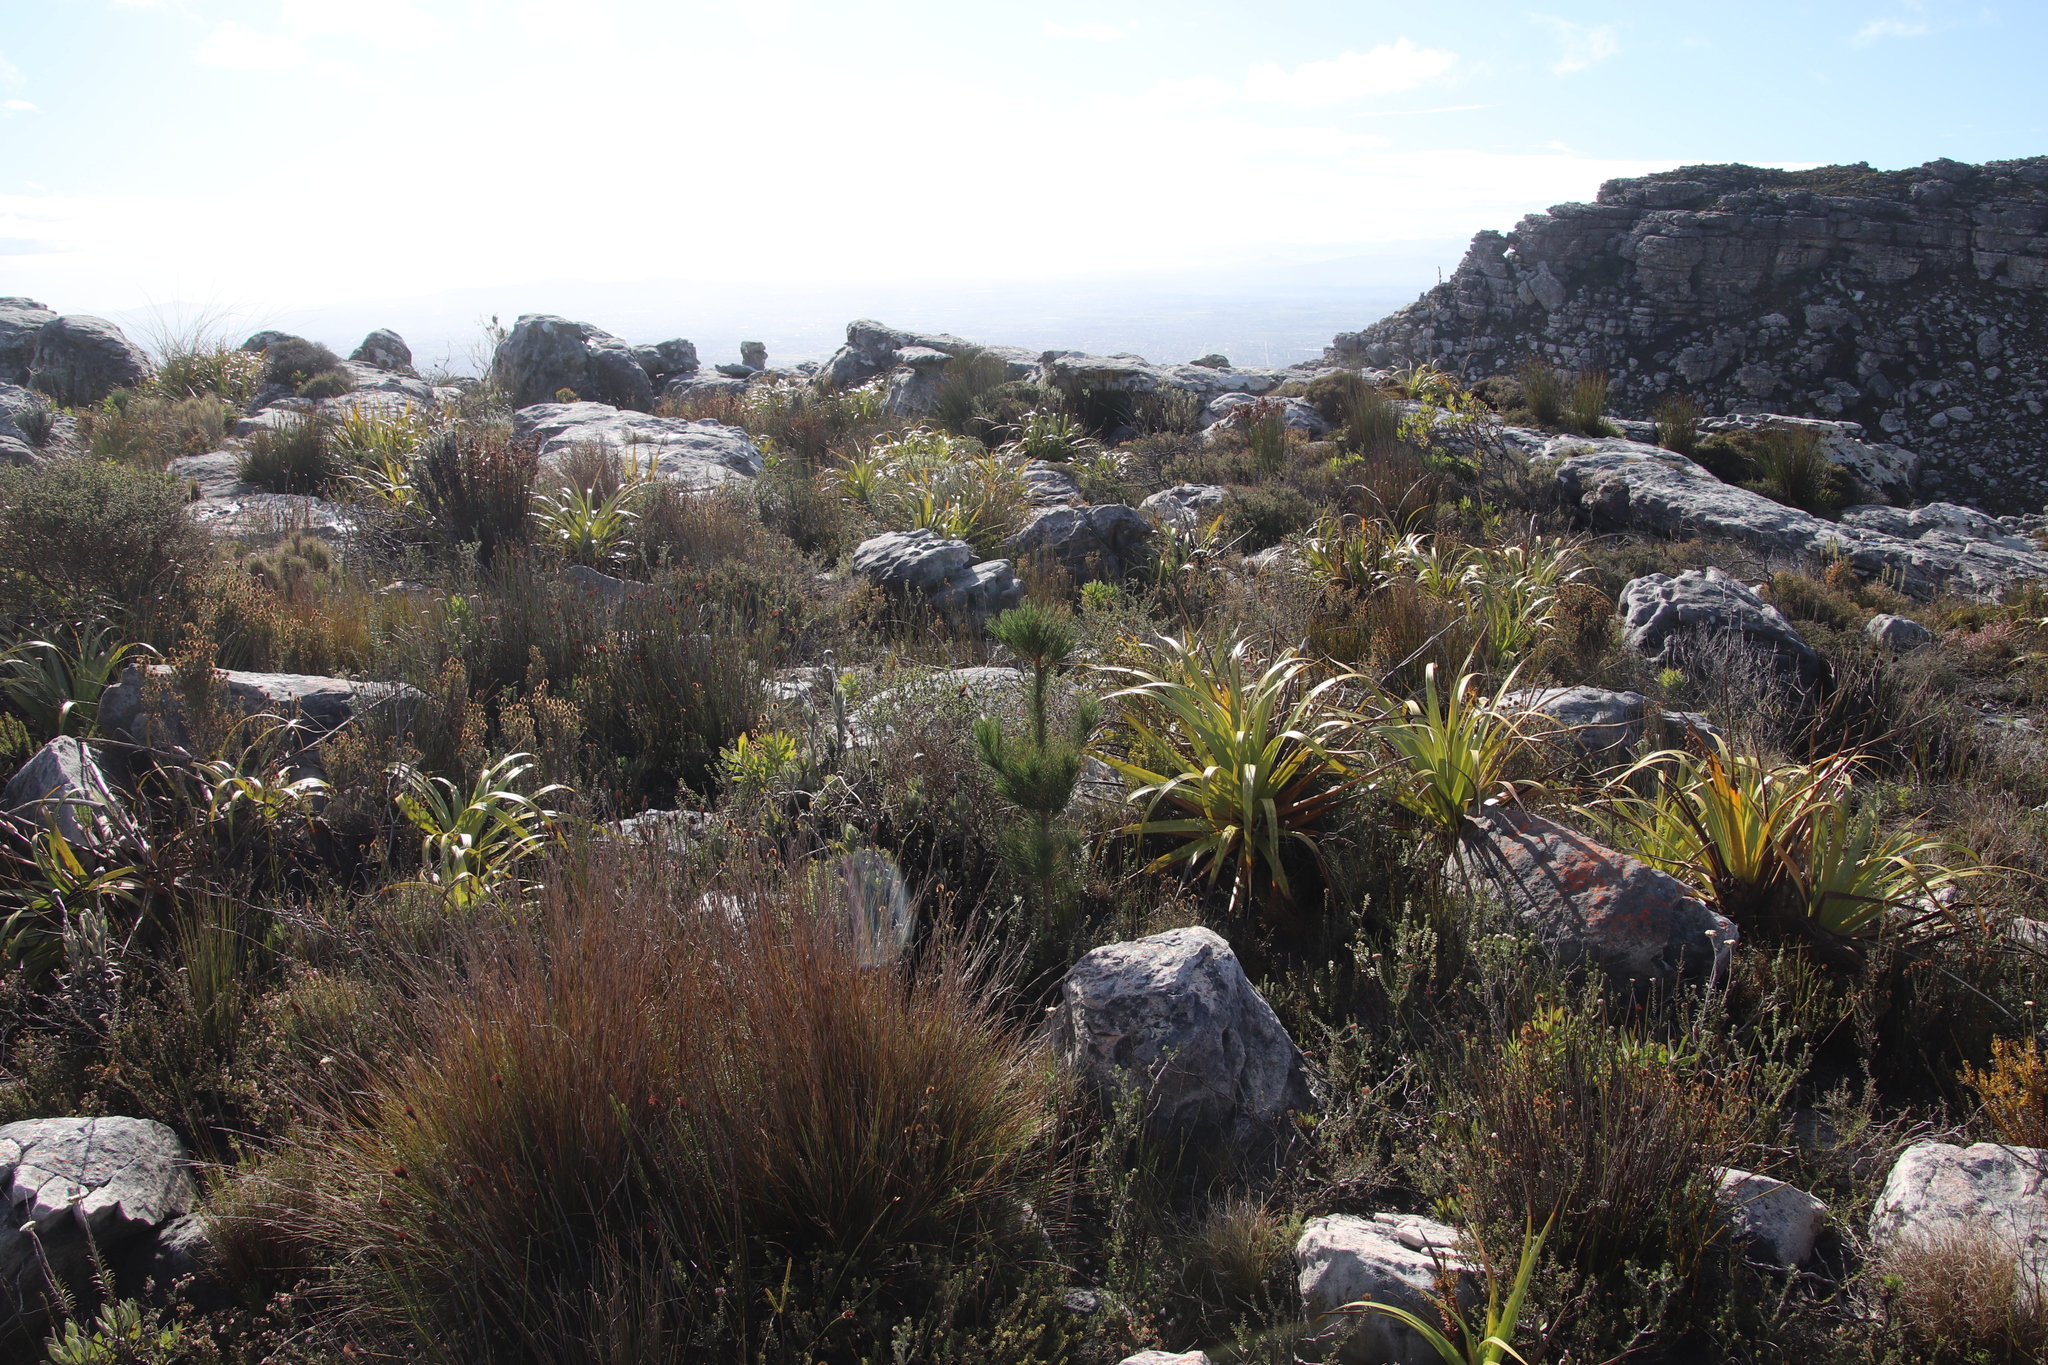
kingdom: Plantae
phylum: Tracheophyta
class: Pinopsida
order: Pinales
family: Pinaceae
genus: Pinus
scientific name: Pinus radiata
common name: Monterey pine
